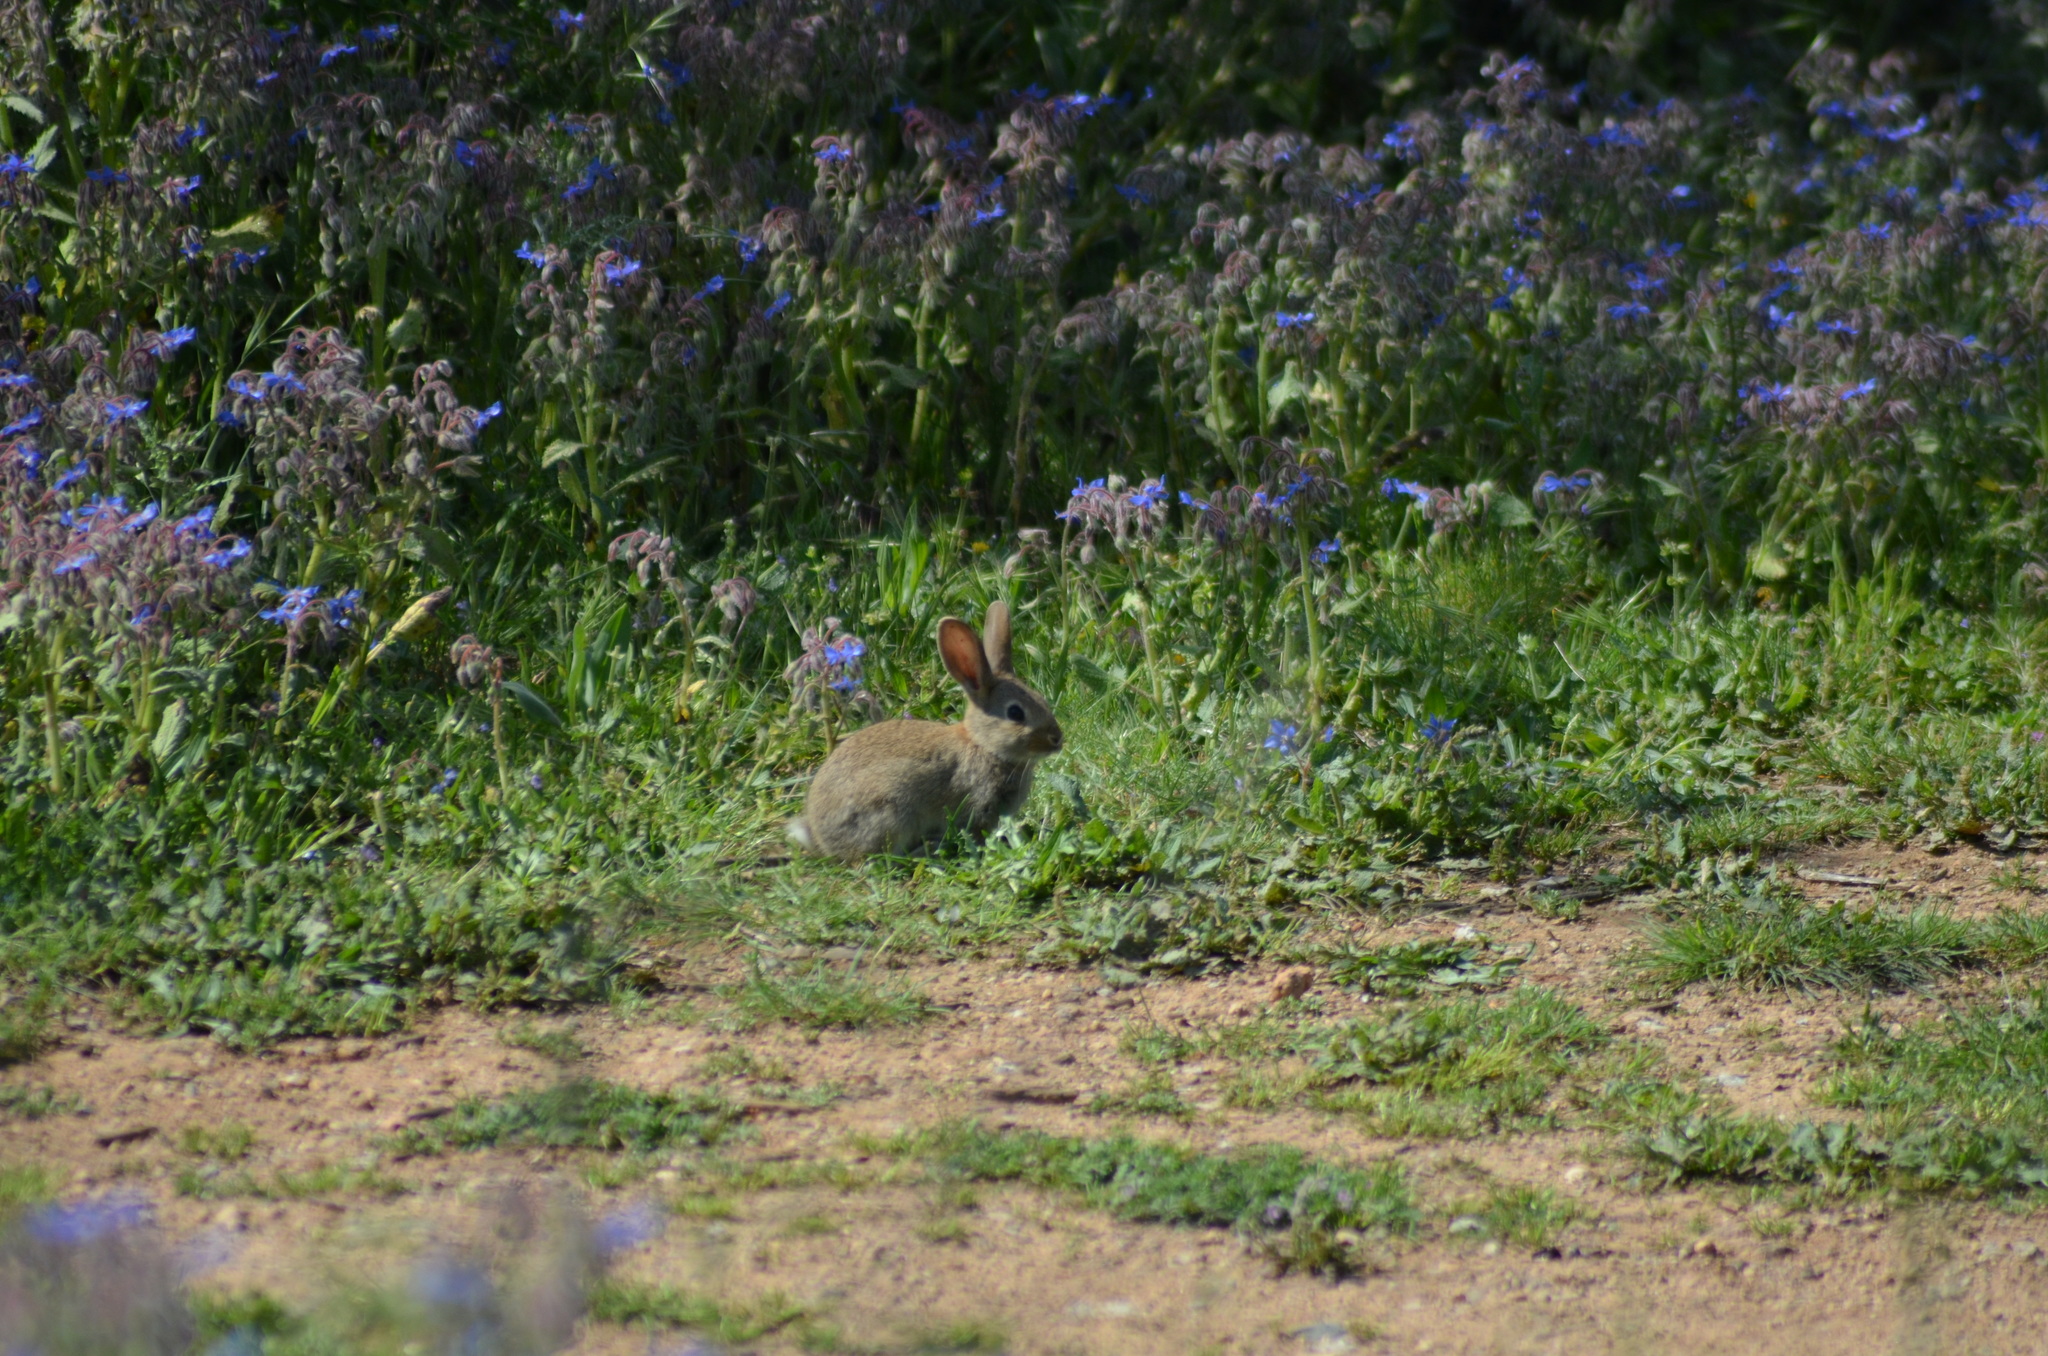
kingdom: Animalia
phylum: Chordata
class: Mammalia
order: Lagomorpha
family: Leporidae
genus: Oryctolagus
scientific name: Oryctolagus cuniculus
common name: European rabbit
